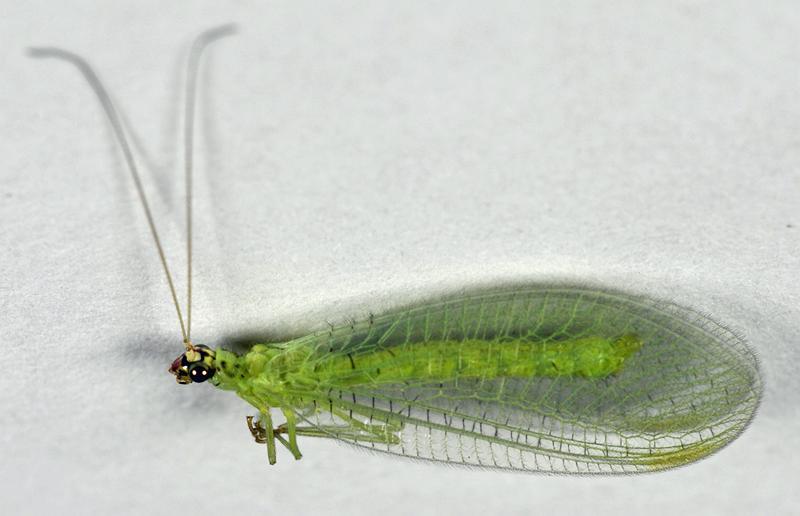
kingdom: Animalia
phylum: Arthropoda
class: Insecta
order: Neuroptera
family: Chrysopidae
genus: Chrysopa
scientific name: Chrysopa oculata
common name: Golden-eyed lacewing
